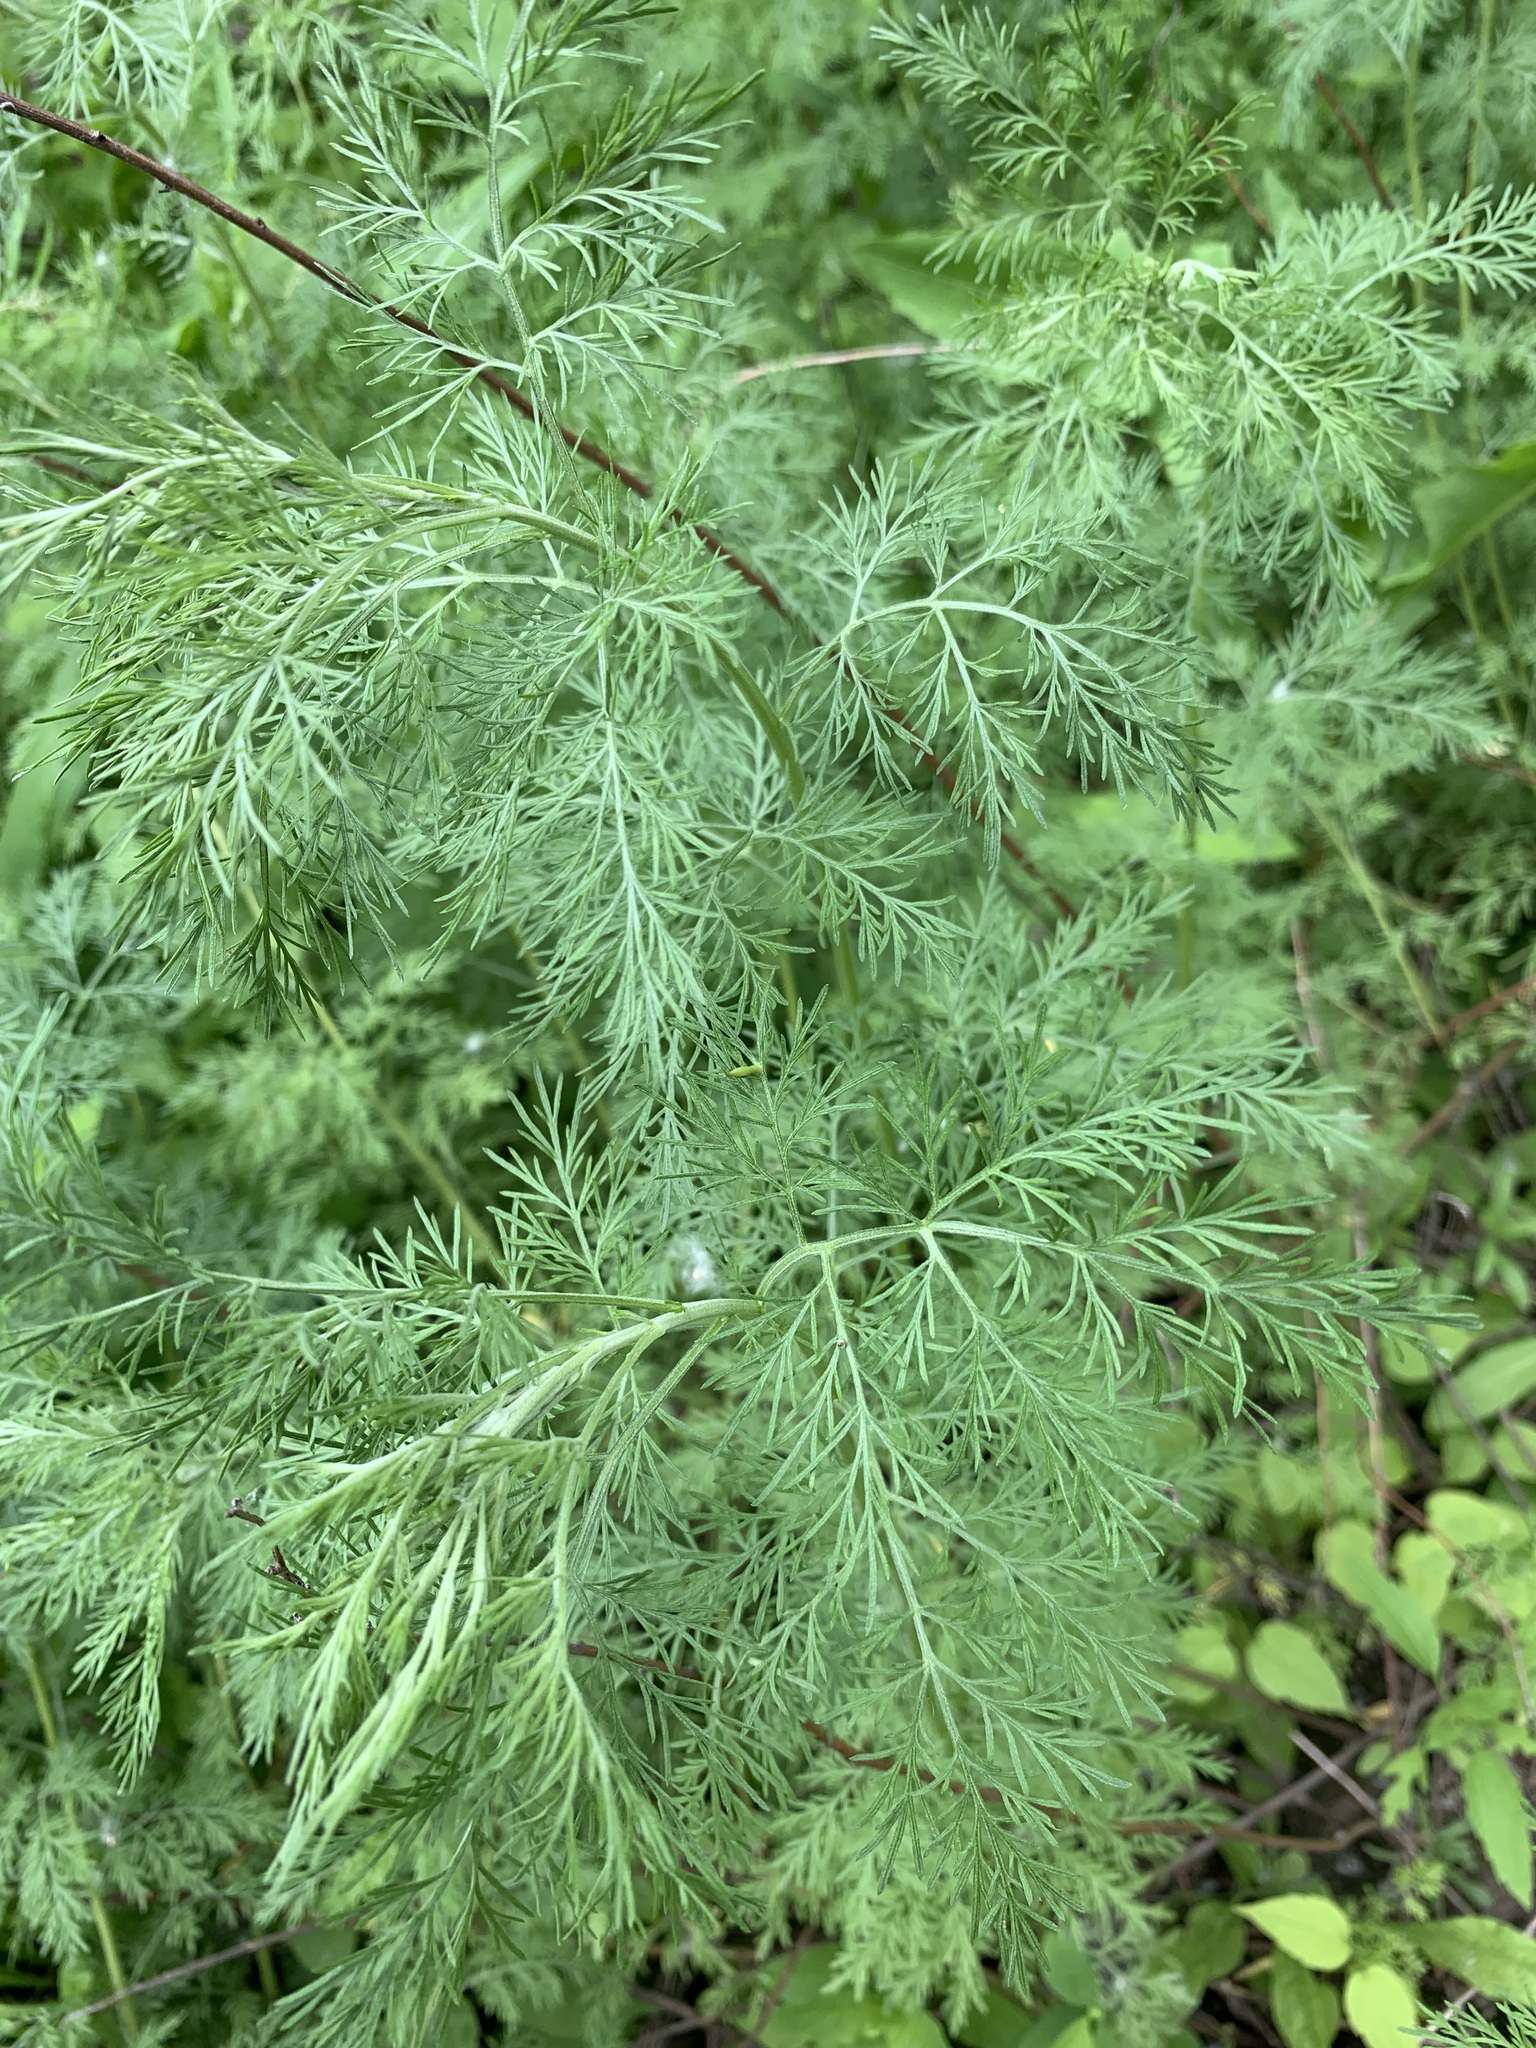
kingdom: Plantae
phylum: Tracheophyta
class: Magnoliopsida
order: Asterales
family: Asteraceae
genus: Artemisia
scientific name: Artemisia abrotanum
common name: Southernwood
